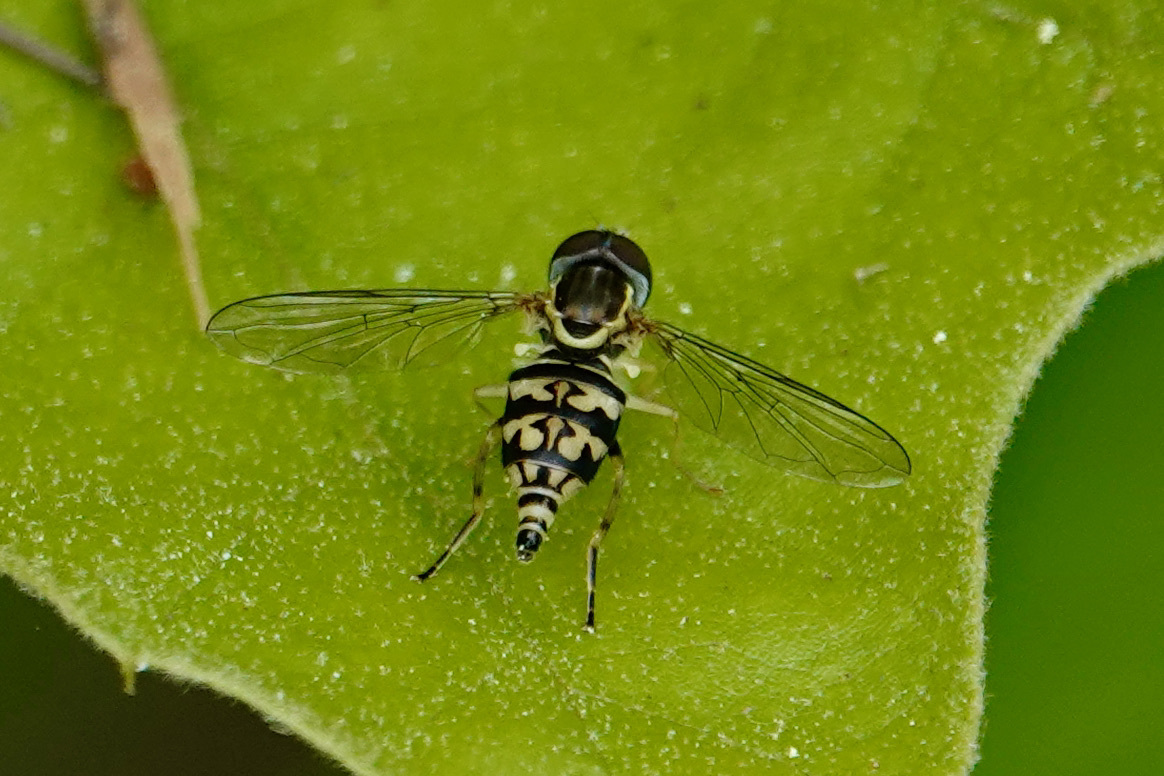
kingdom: Animalia
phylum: Arthropoda
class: Insecta
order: Diptera
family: Syrphidae
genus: Toxomerus
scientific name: Toxomerus geminatus
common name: Eastern calligrapher
